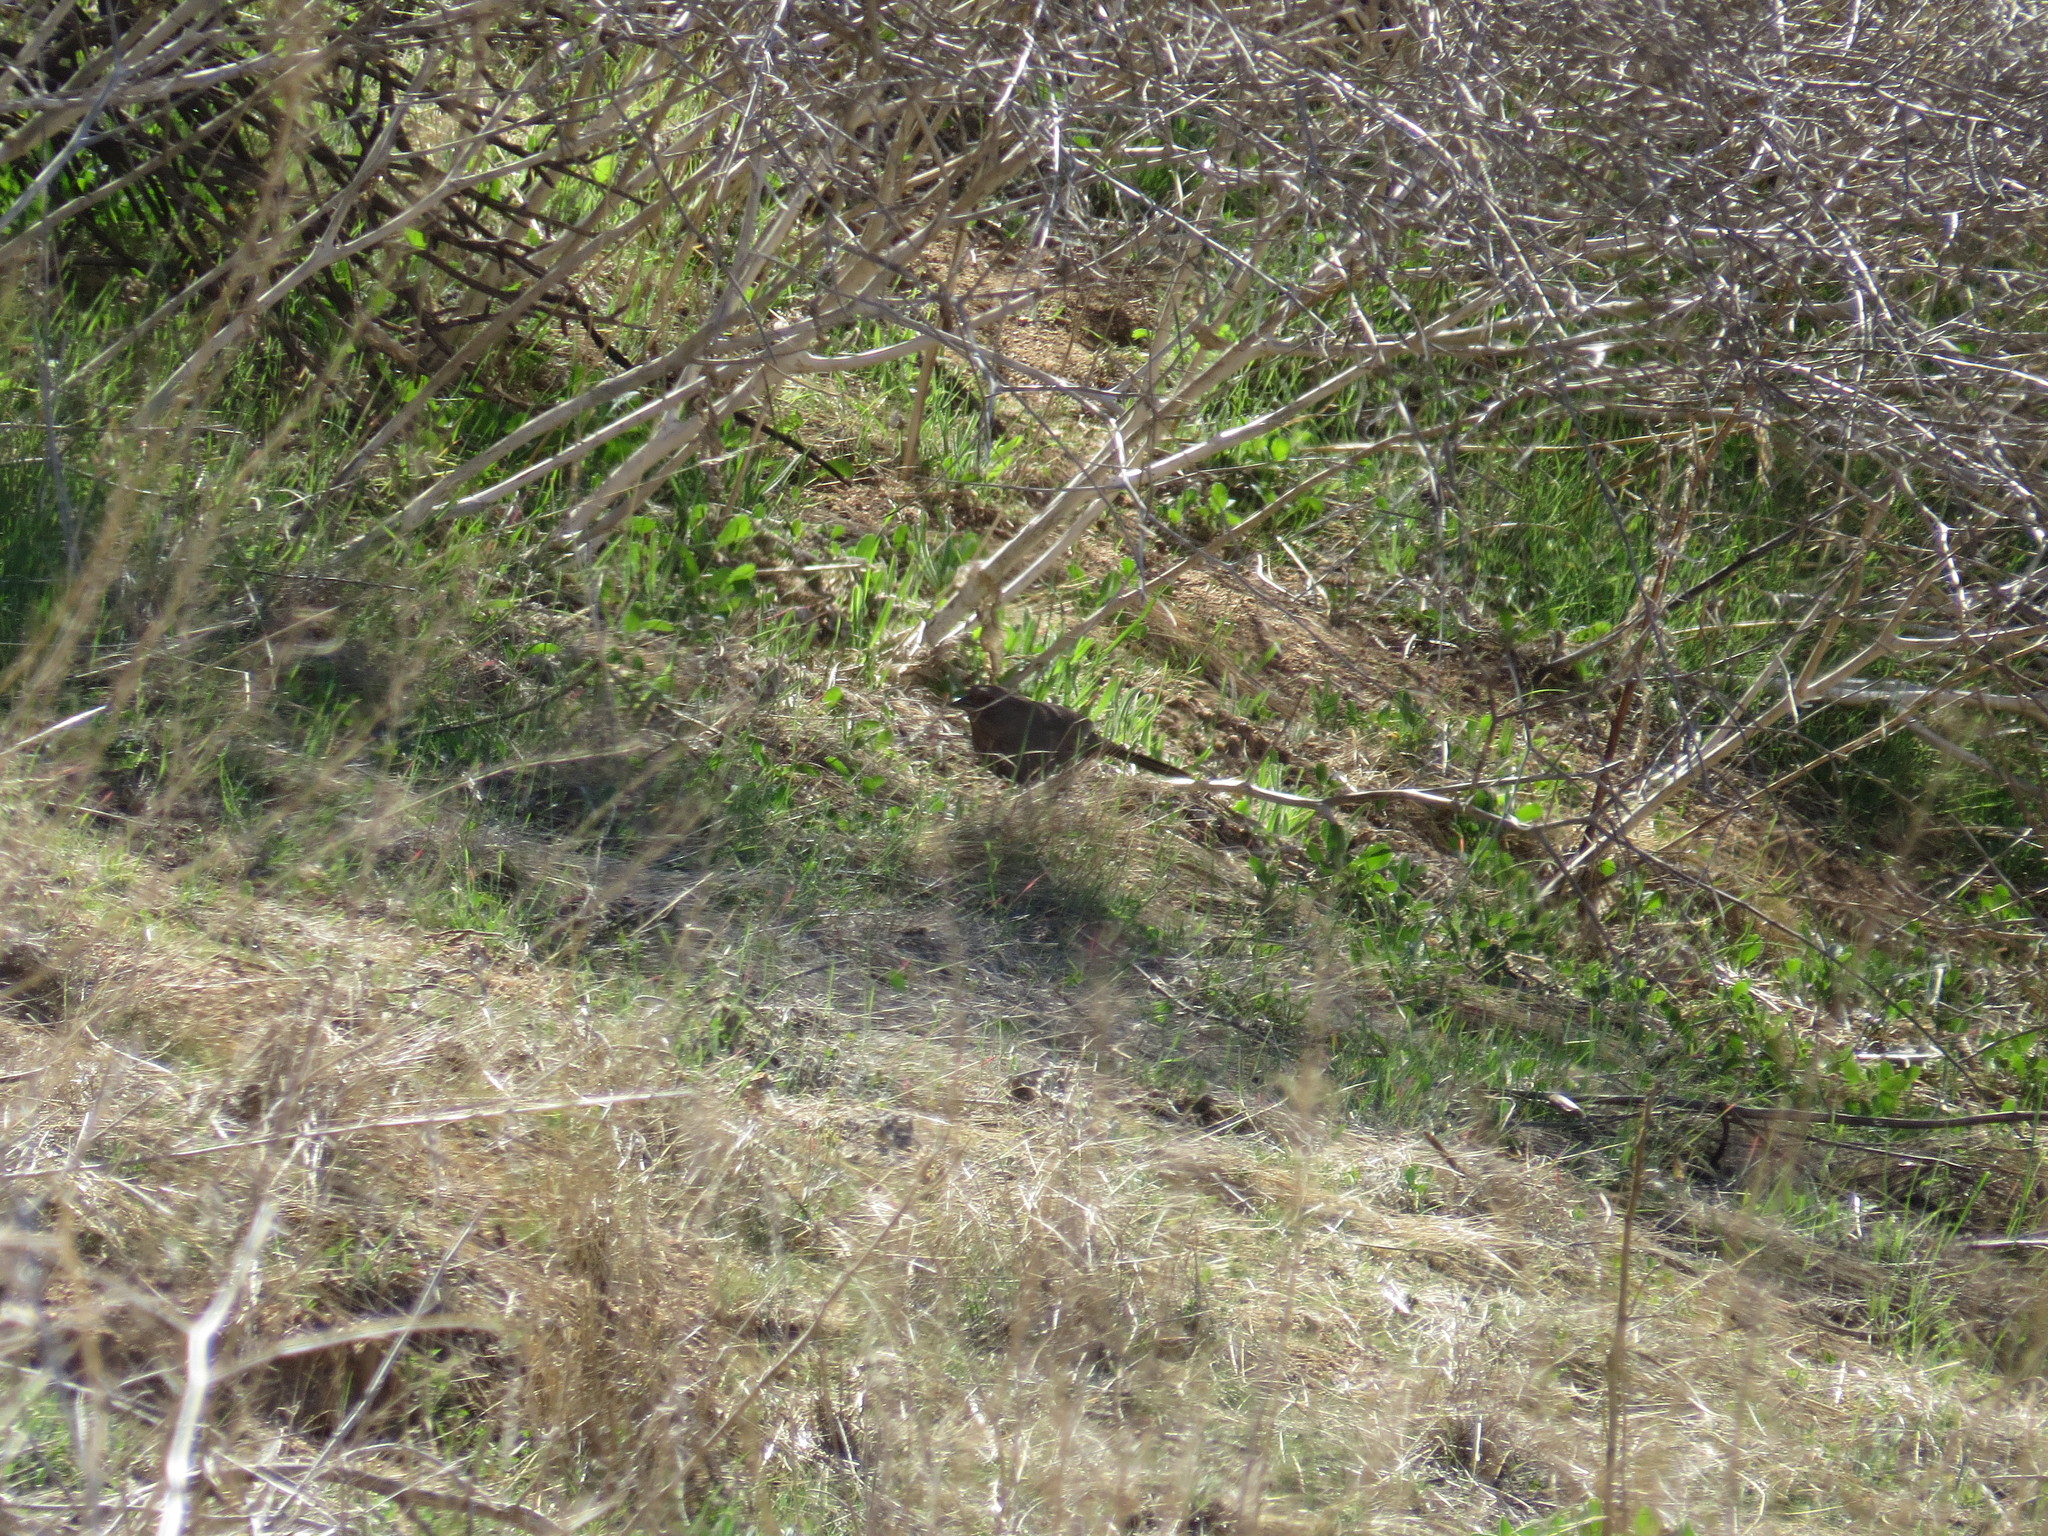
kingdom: Animalia
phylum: Chordata
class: Aves
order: Passeriformes
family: Passerellidae
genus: Melozone
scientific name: Melozone crissalis
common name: California towhee
